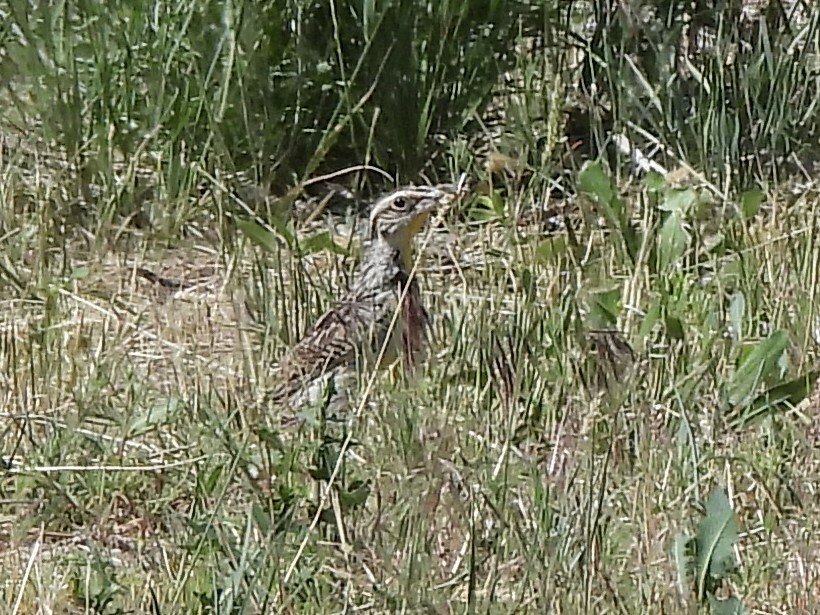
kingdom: Animalia
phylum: Chordata
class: Aves
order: Passeriformes
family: Icteridae
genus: Sturnella
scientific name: Sturnella neglecta
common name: Western meadowlark
